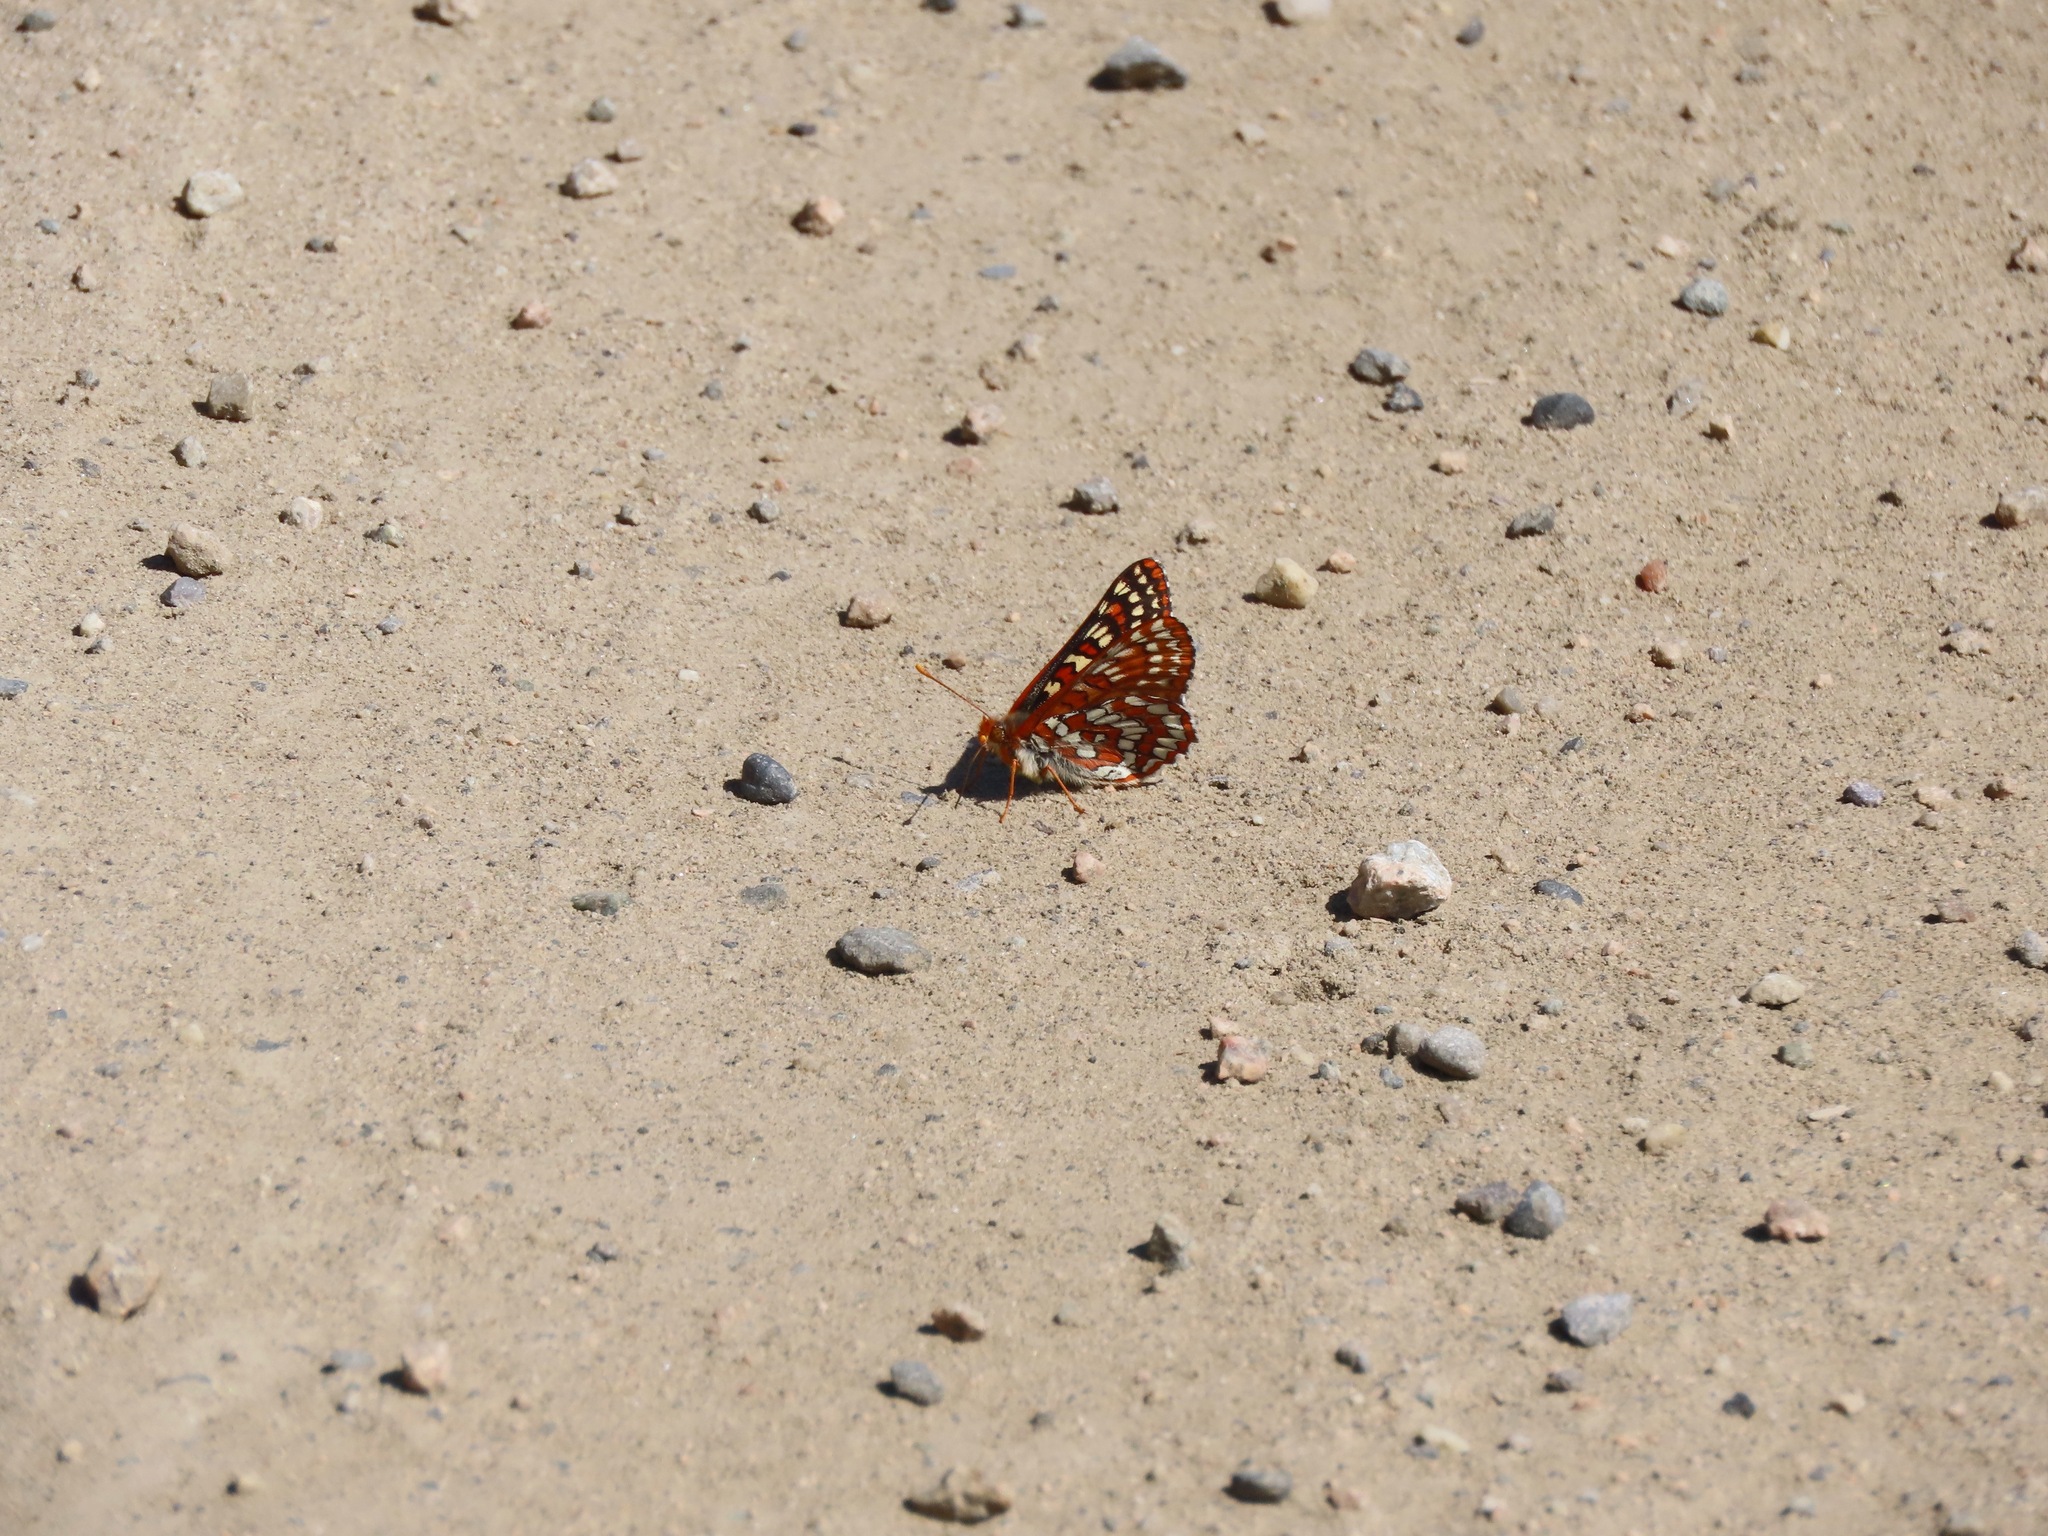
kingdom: Animalia
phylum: Arthropoda
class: Insecta
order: Lepidoptera
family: Nymphalidae
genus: Occidryas
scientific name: Occidryas anicia
